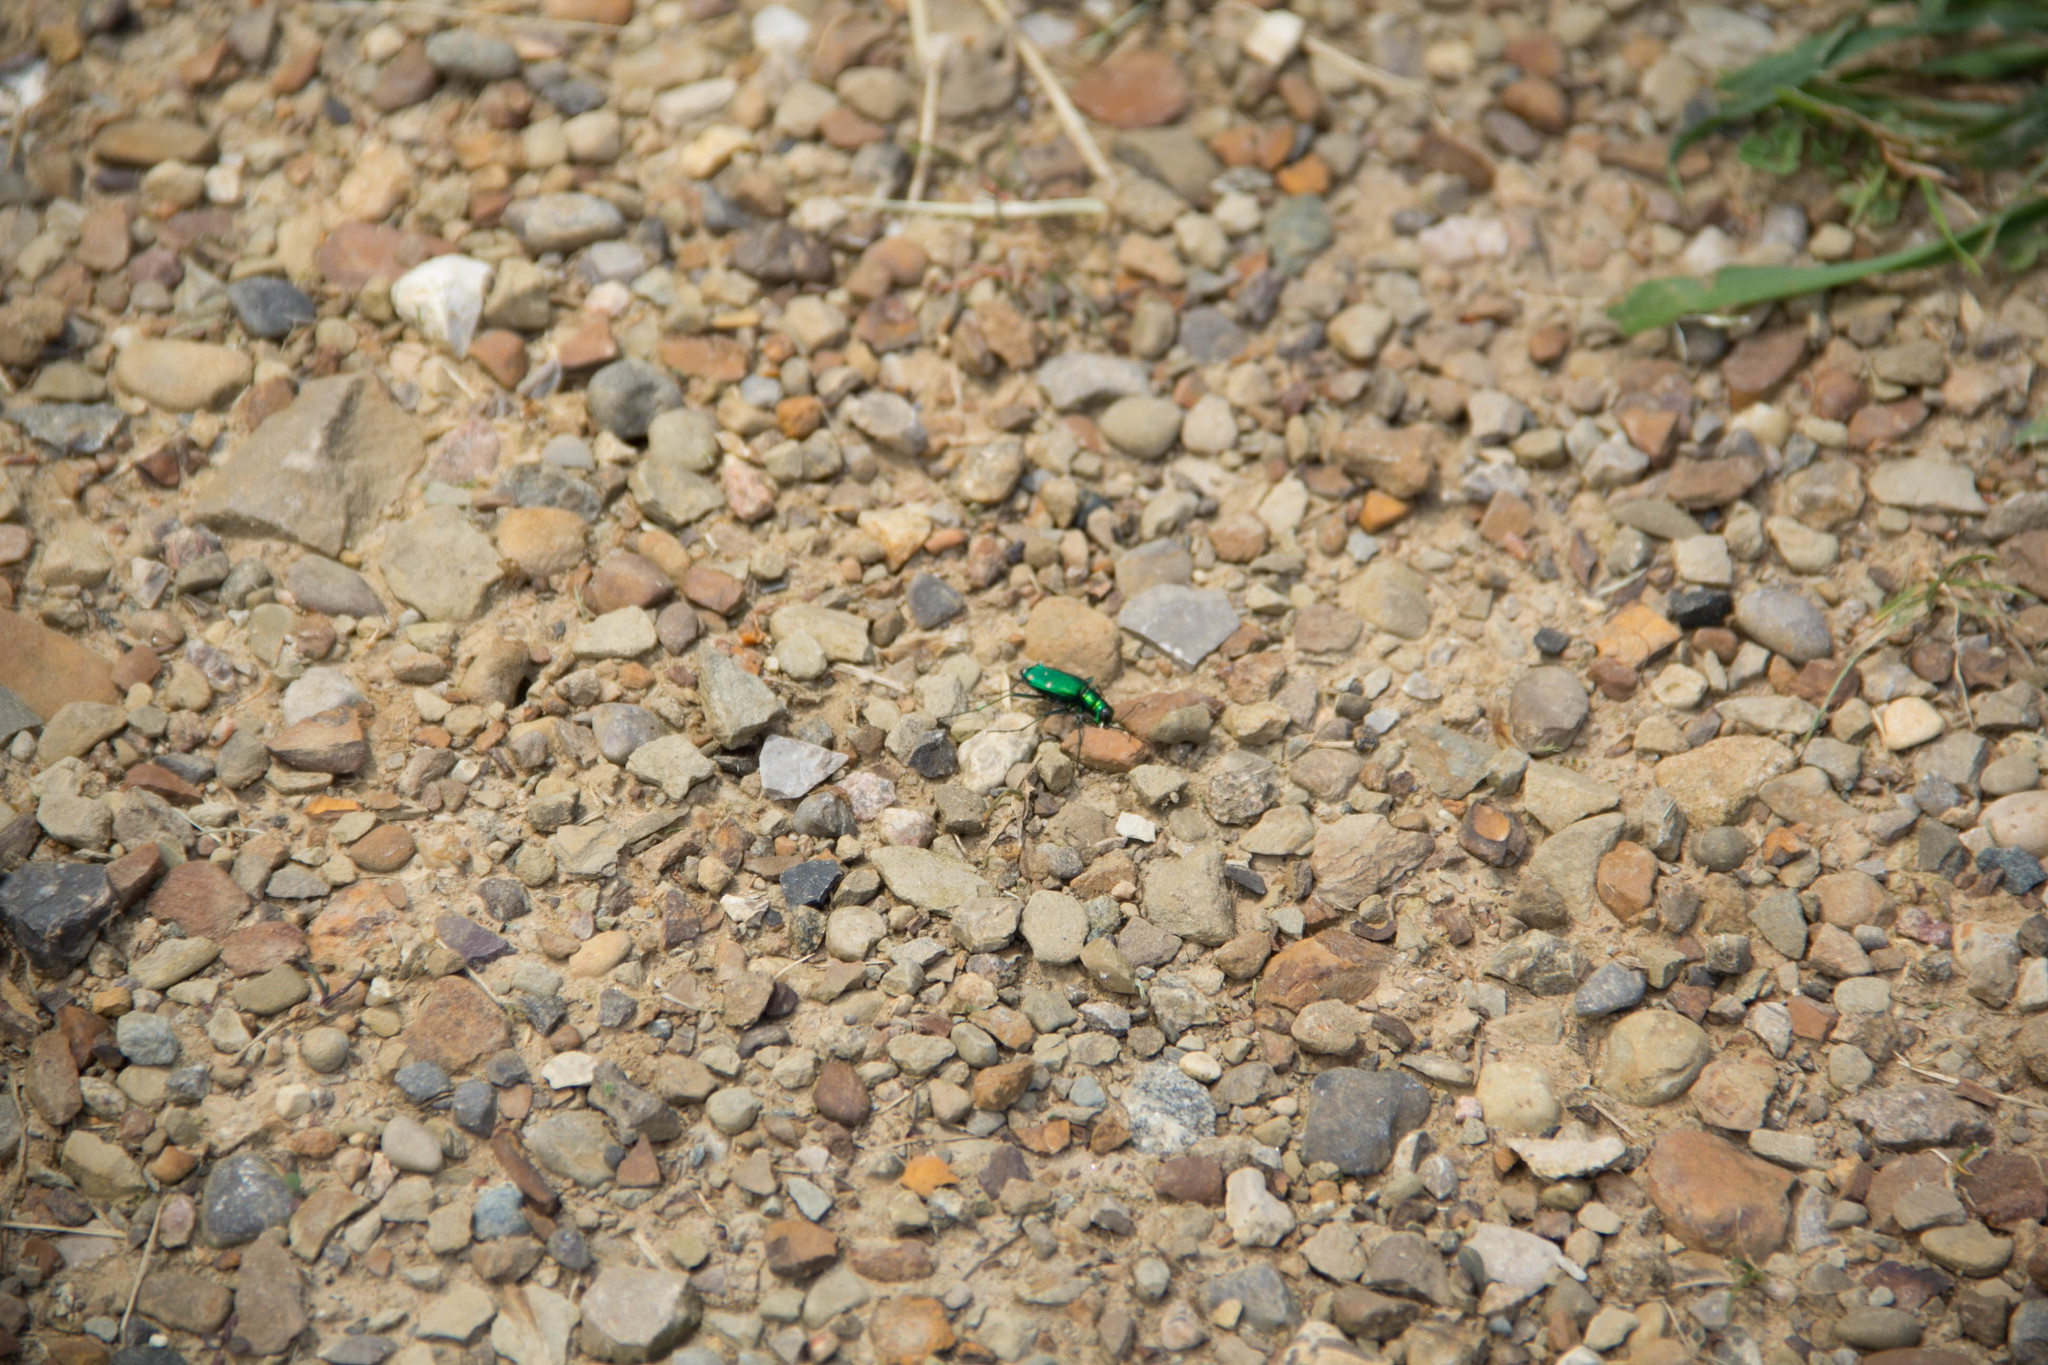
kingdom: Animalia
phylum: Arthropoda
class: Insecta
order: Coleoptera
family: Carabidae
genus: Cicindela
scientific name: Cicindela sexguttata
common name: Six-spotted tiger beetle
